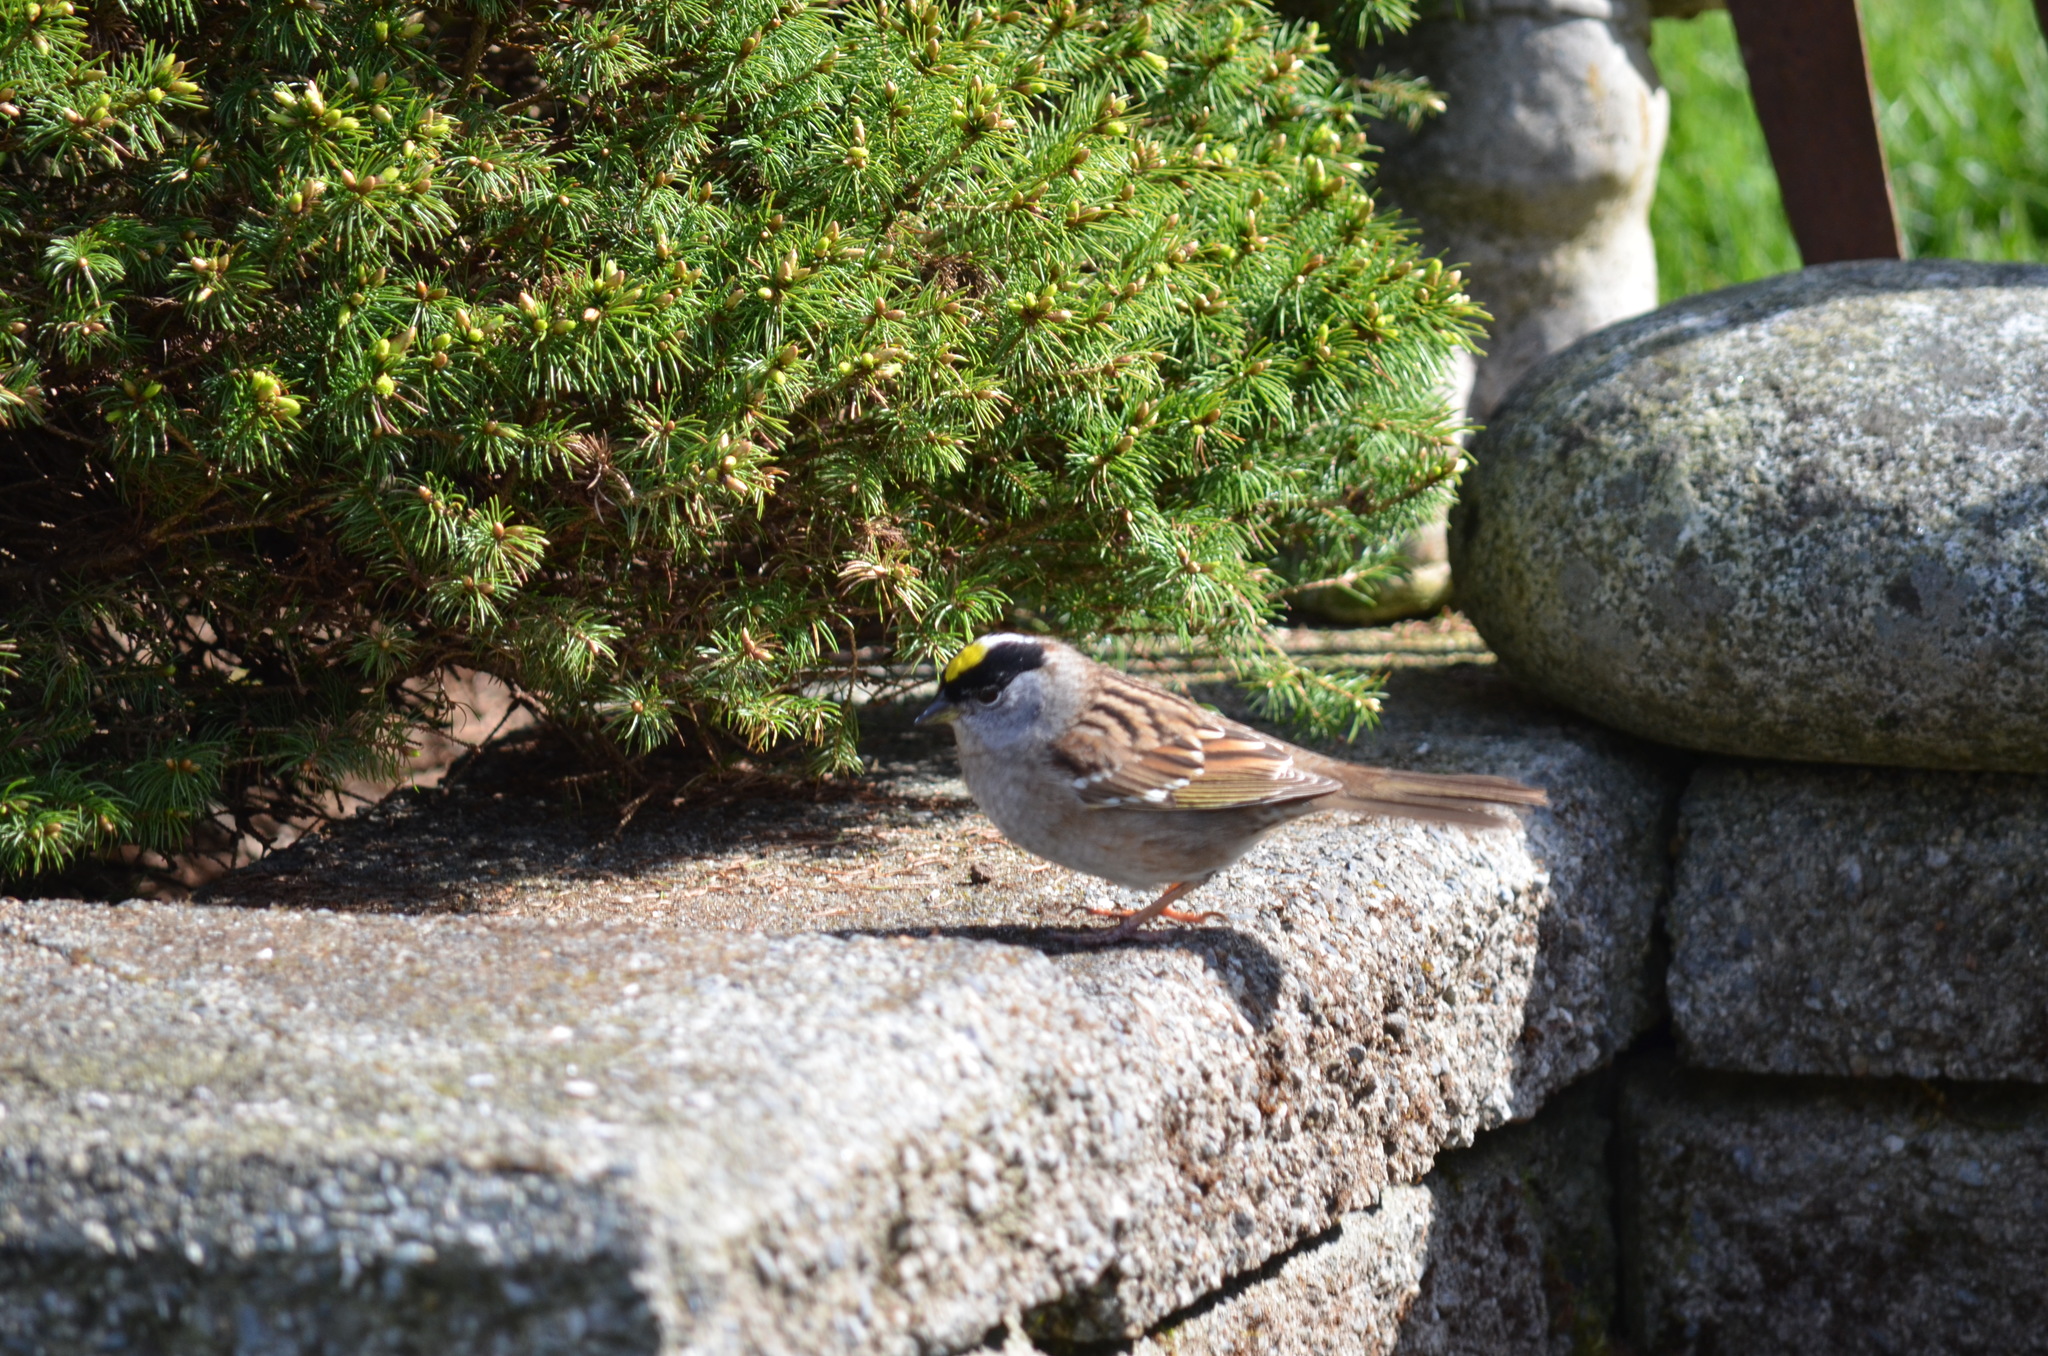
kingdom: Animalia
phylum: Chordata
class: Aves
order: Passeriformes
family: Passerellidae
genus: Zonotrichia
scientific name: Zonotrichia atricapilla
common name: Golden-crowned sparrow
